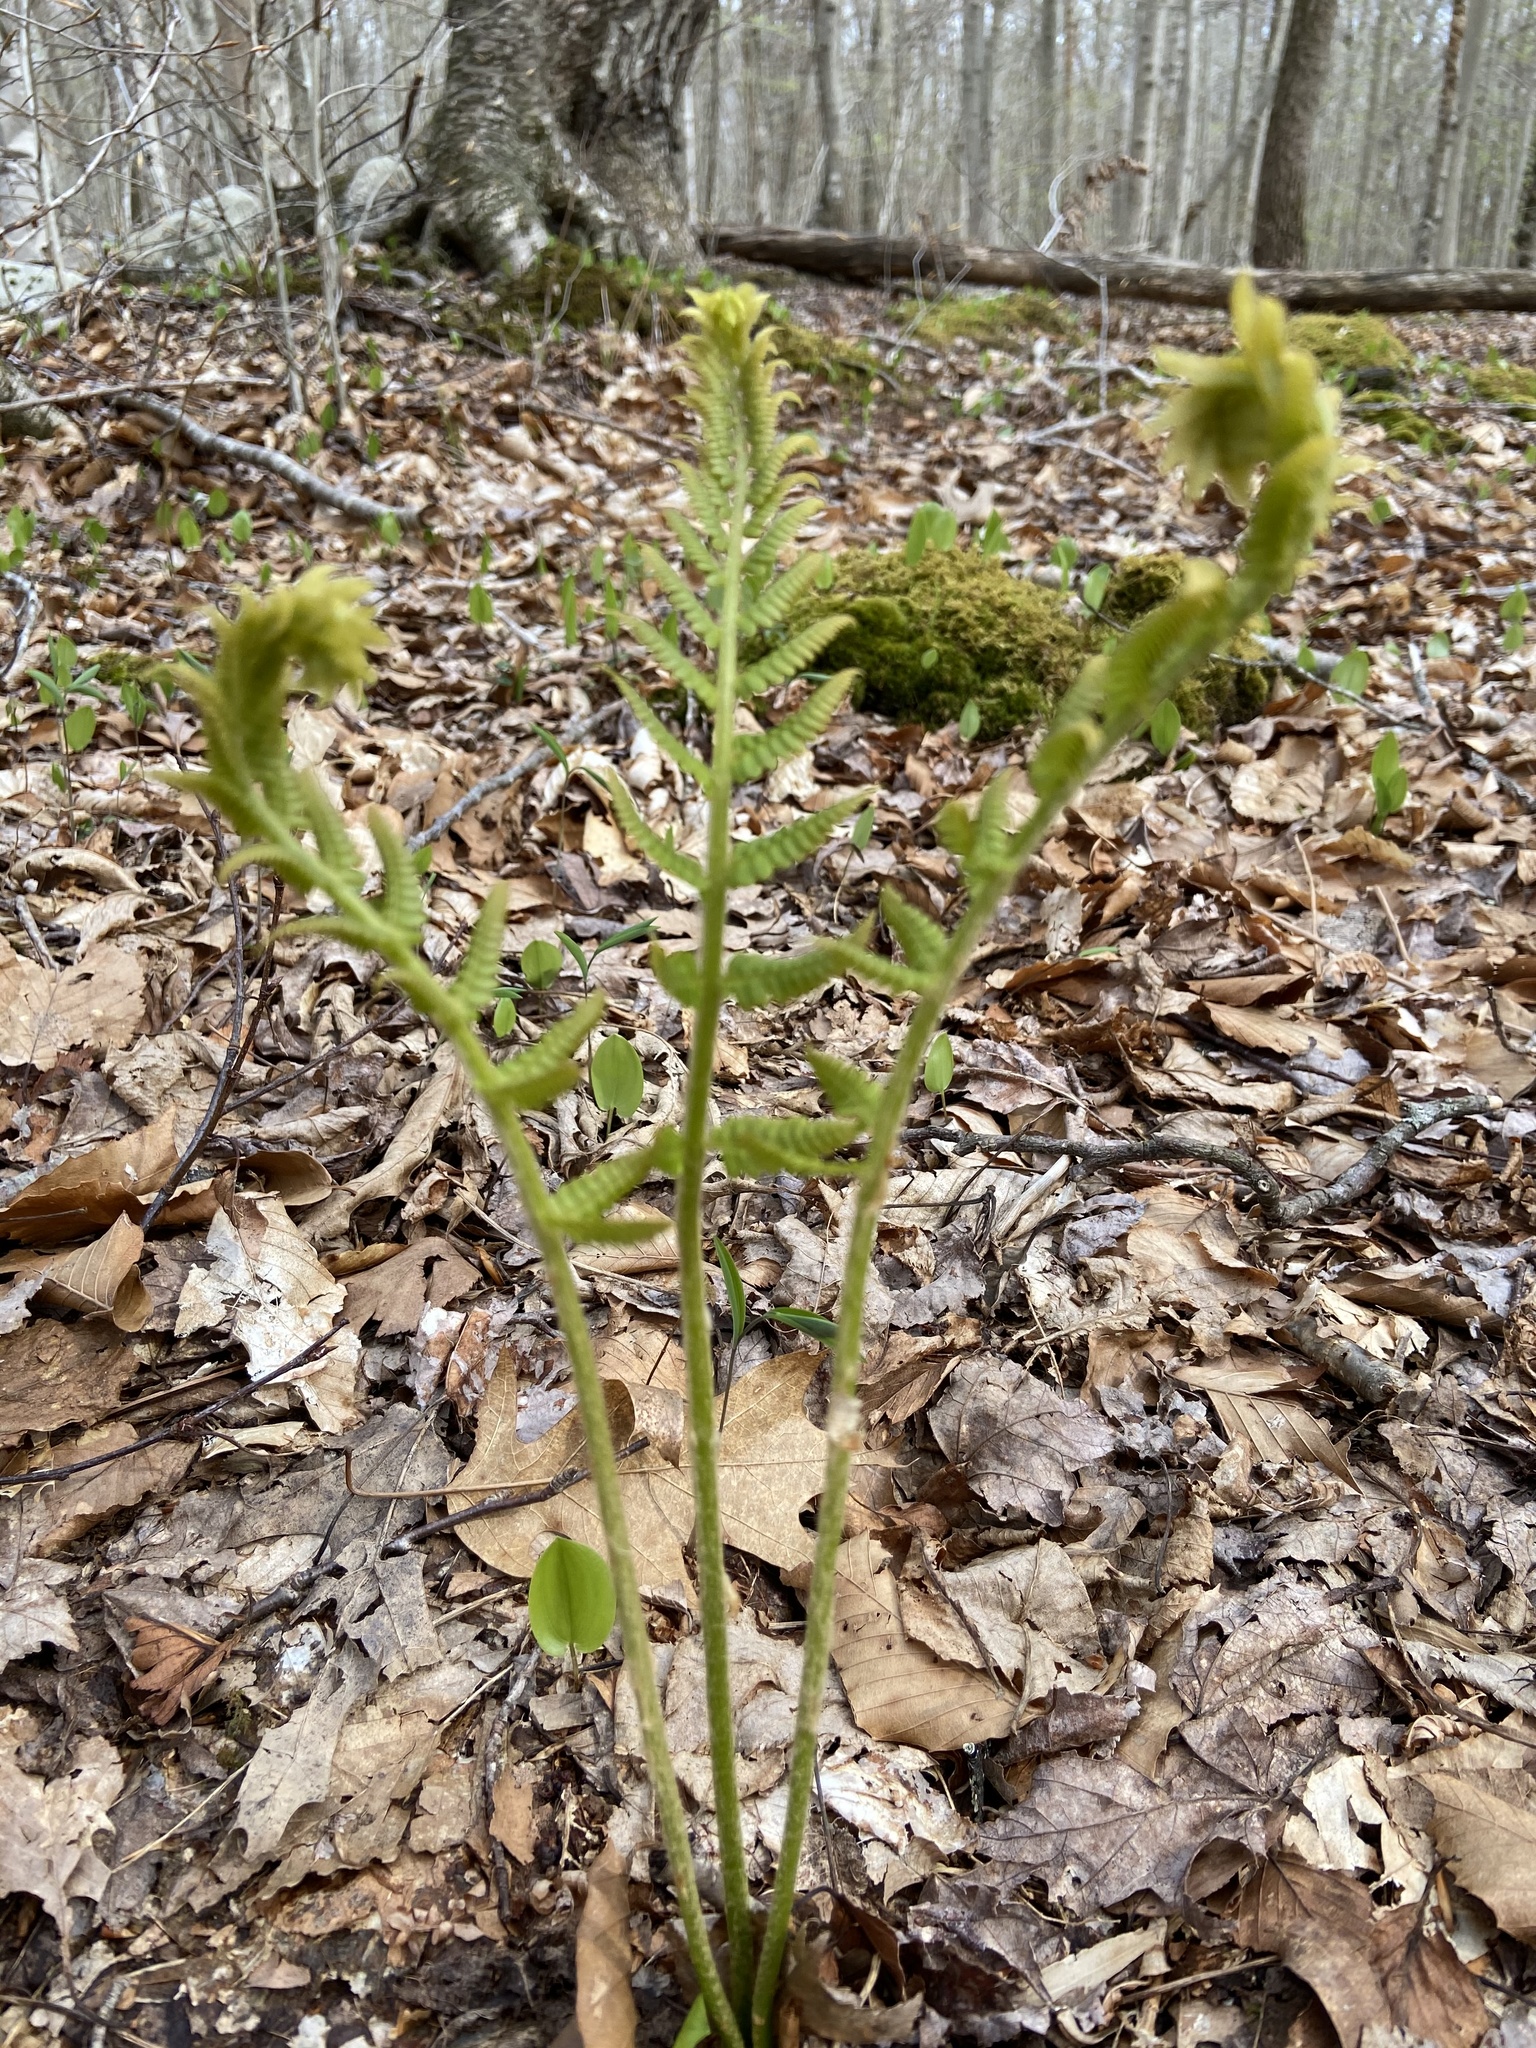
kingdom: Plantae
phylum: Tracheophyta
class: Polypodiopsida
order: Osmundales
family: Osmundaceae
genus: Osmundastrum
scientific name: Osmundastrum cinnamomeum
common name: Cinnamon fern
